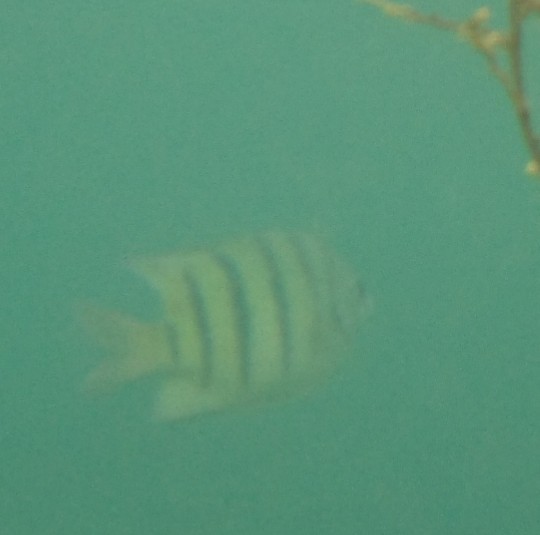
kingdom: Animalia
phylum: Chordata
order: Perciformes
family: Pomacentridae
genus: Abudefduf
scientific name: Abudefduf bengalensis
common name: Bengal sergeant
